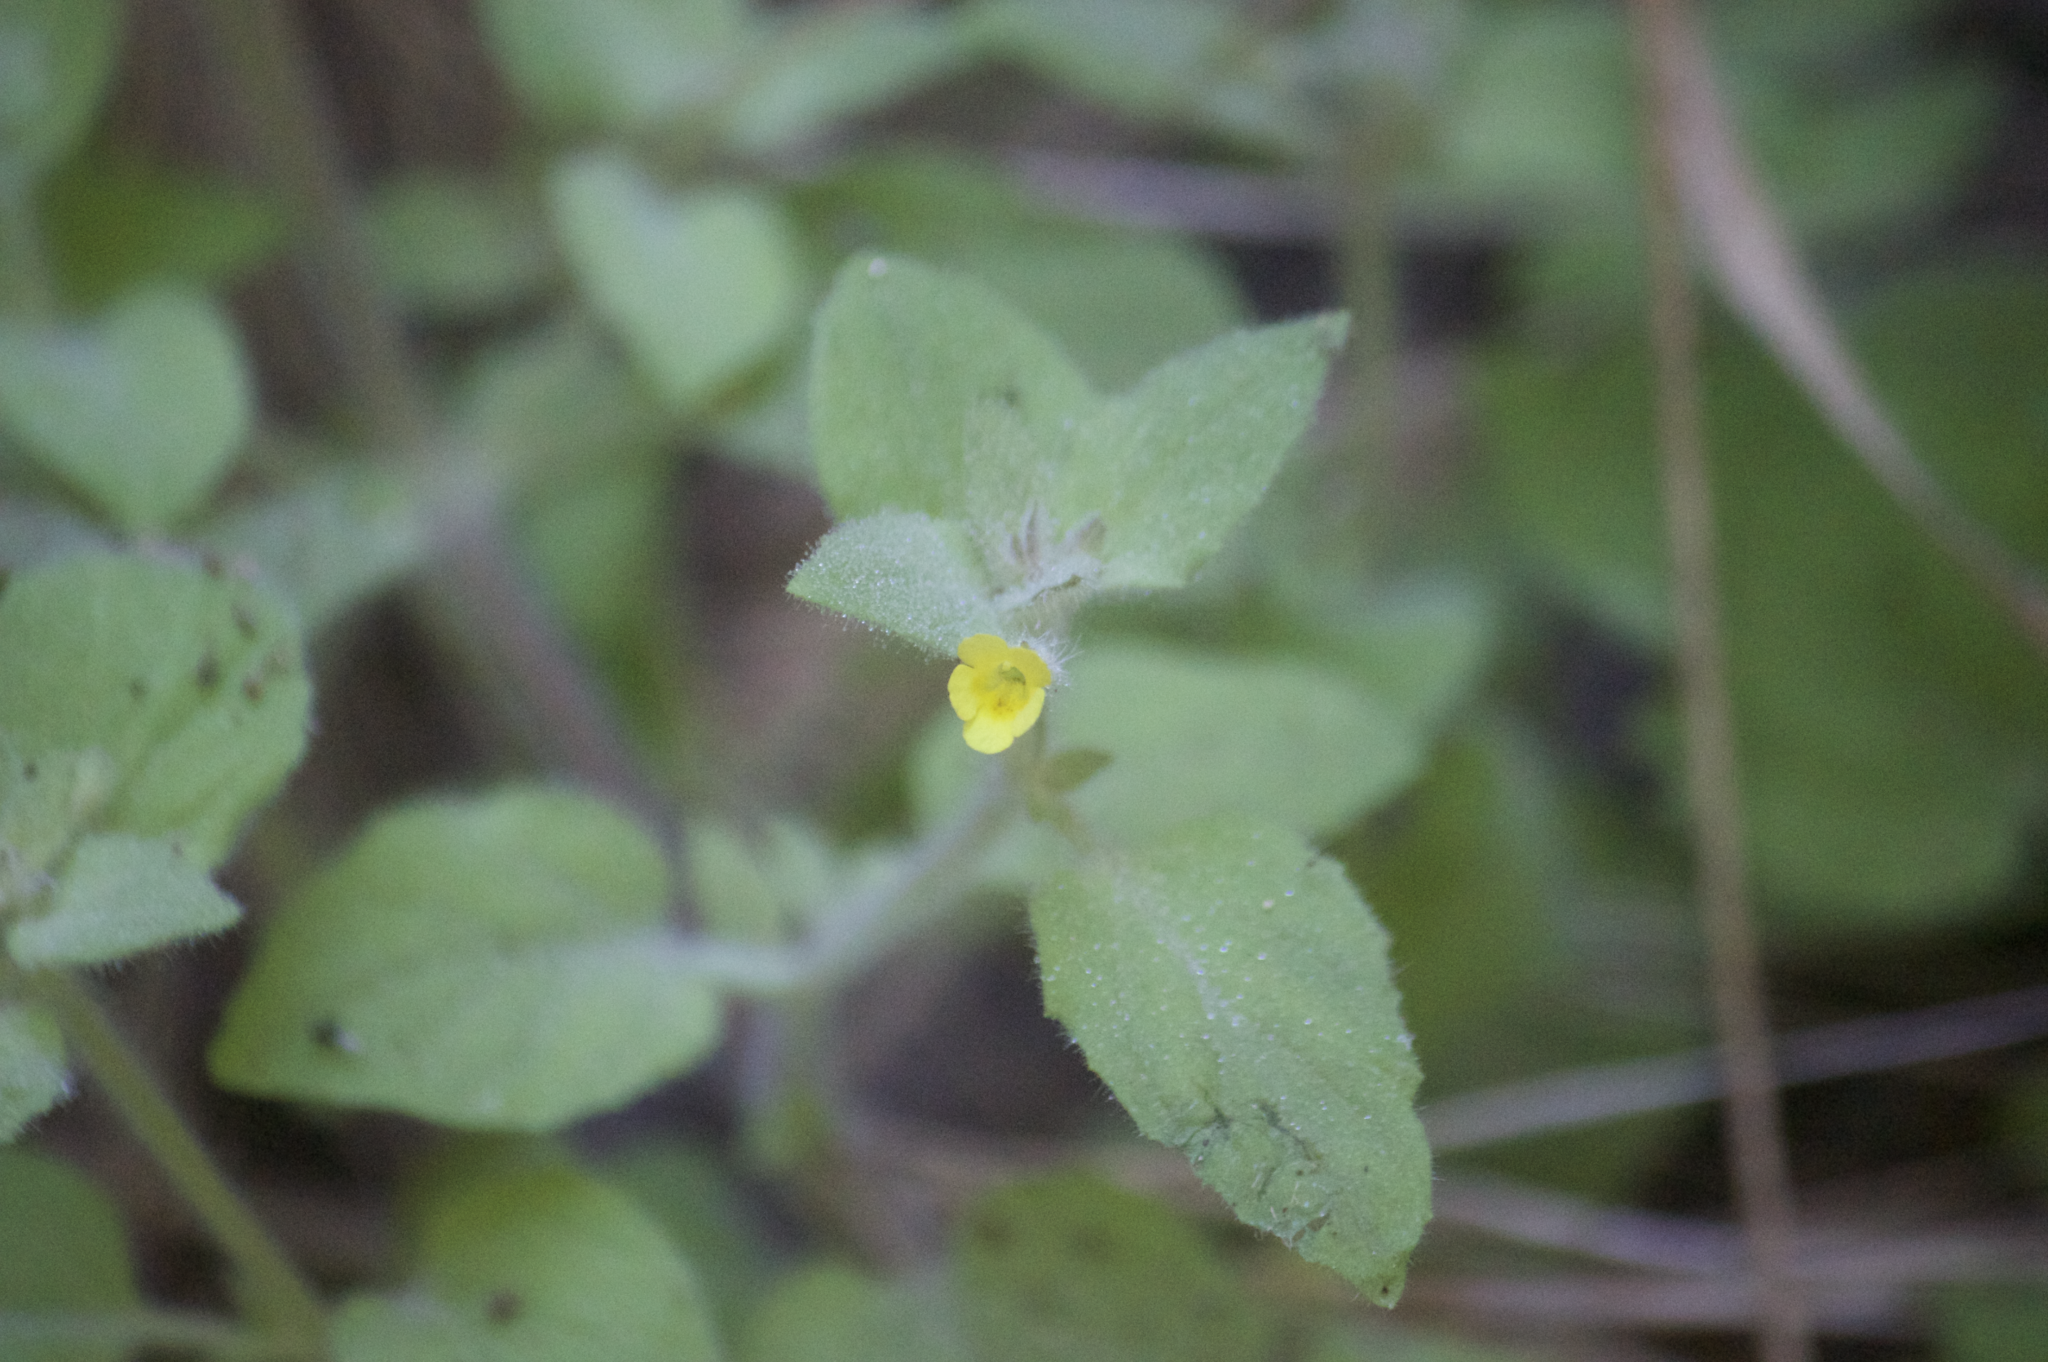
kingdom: Plantae
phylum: Tracheophyta
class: Magnoliopsida
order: Lamiales
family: Phrymaceae
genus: Erythranthe
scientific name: Erythranthe floribunda
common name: Floriferous monkeyflower
